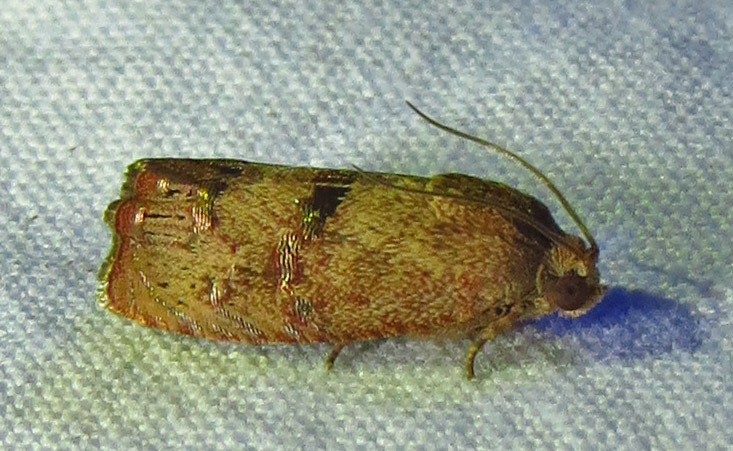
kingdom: Animalia
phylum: Arthropoda
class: Insecta
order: Lepidoptera
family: Tortricidae
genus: Cydia
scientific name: Cydia latiferreana
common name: Filbertworm moth
